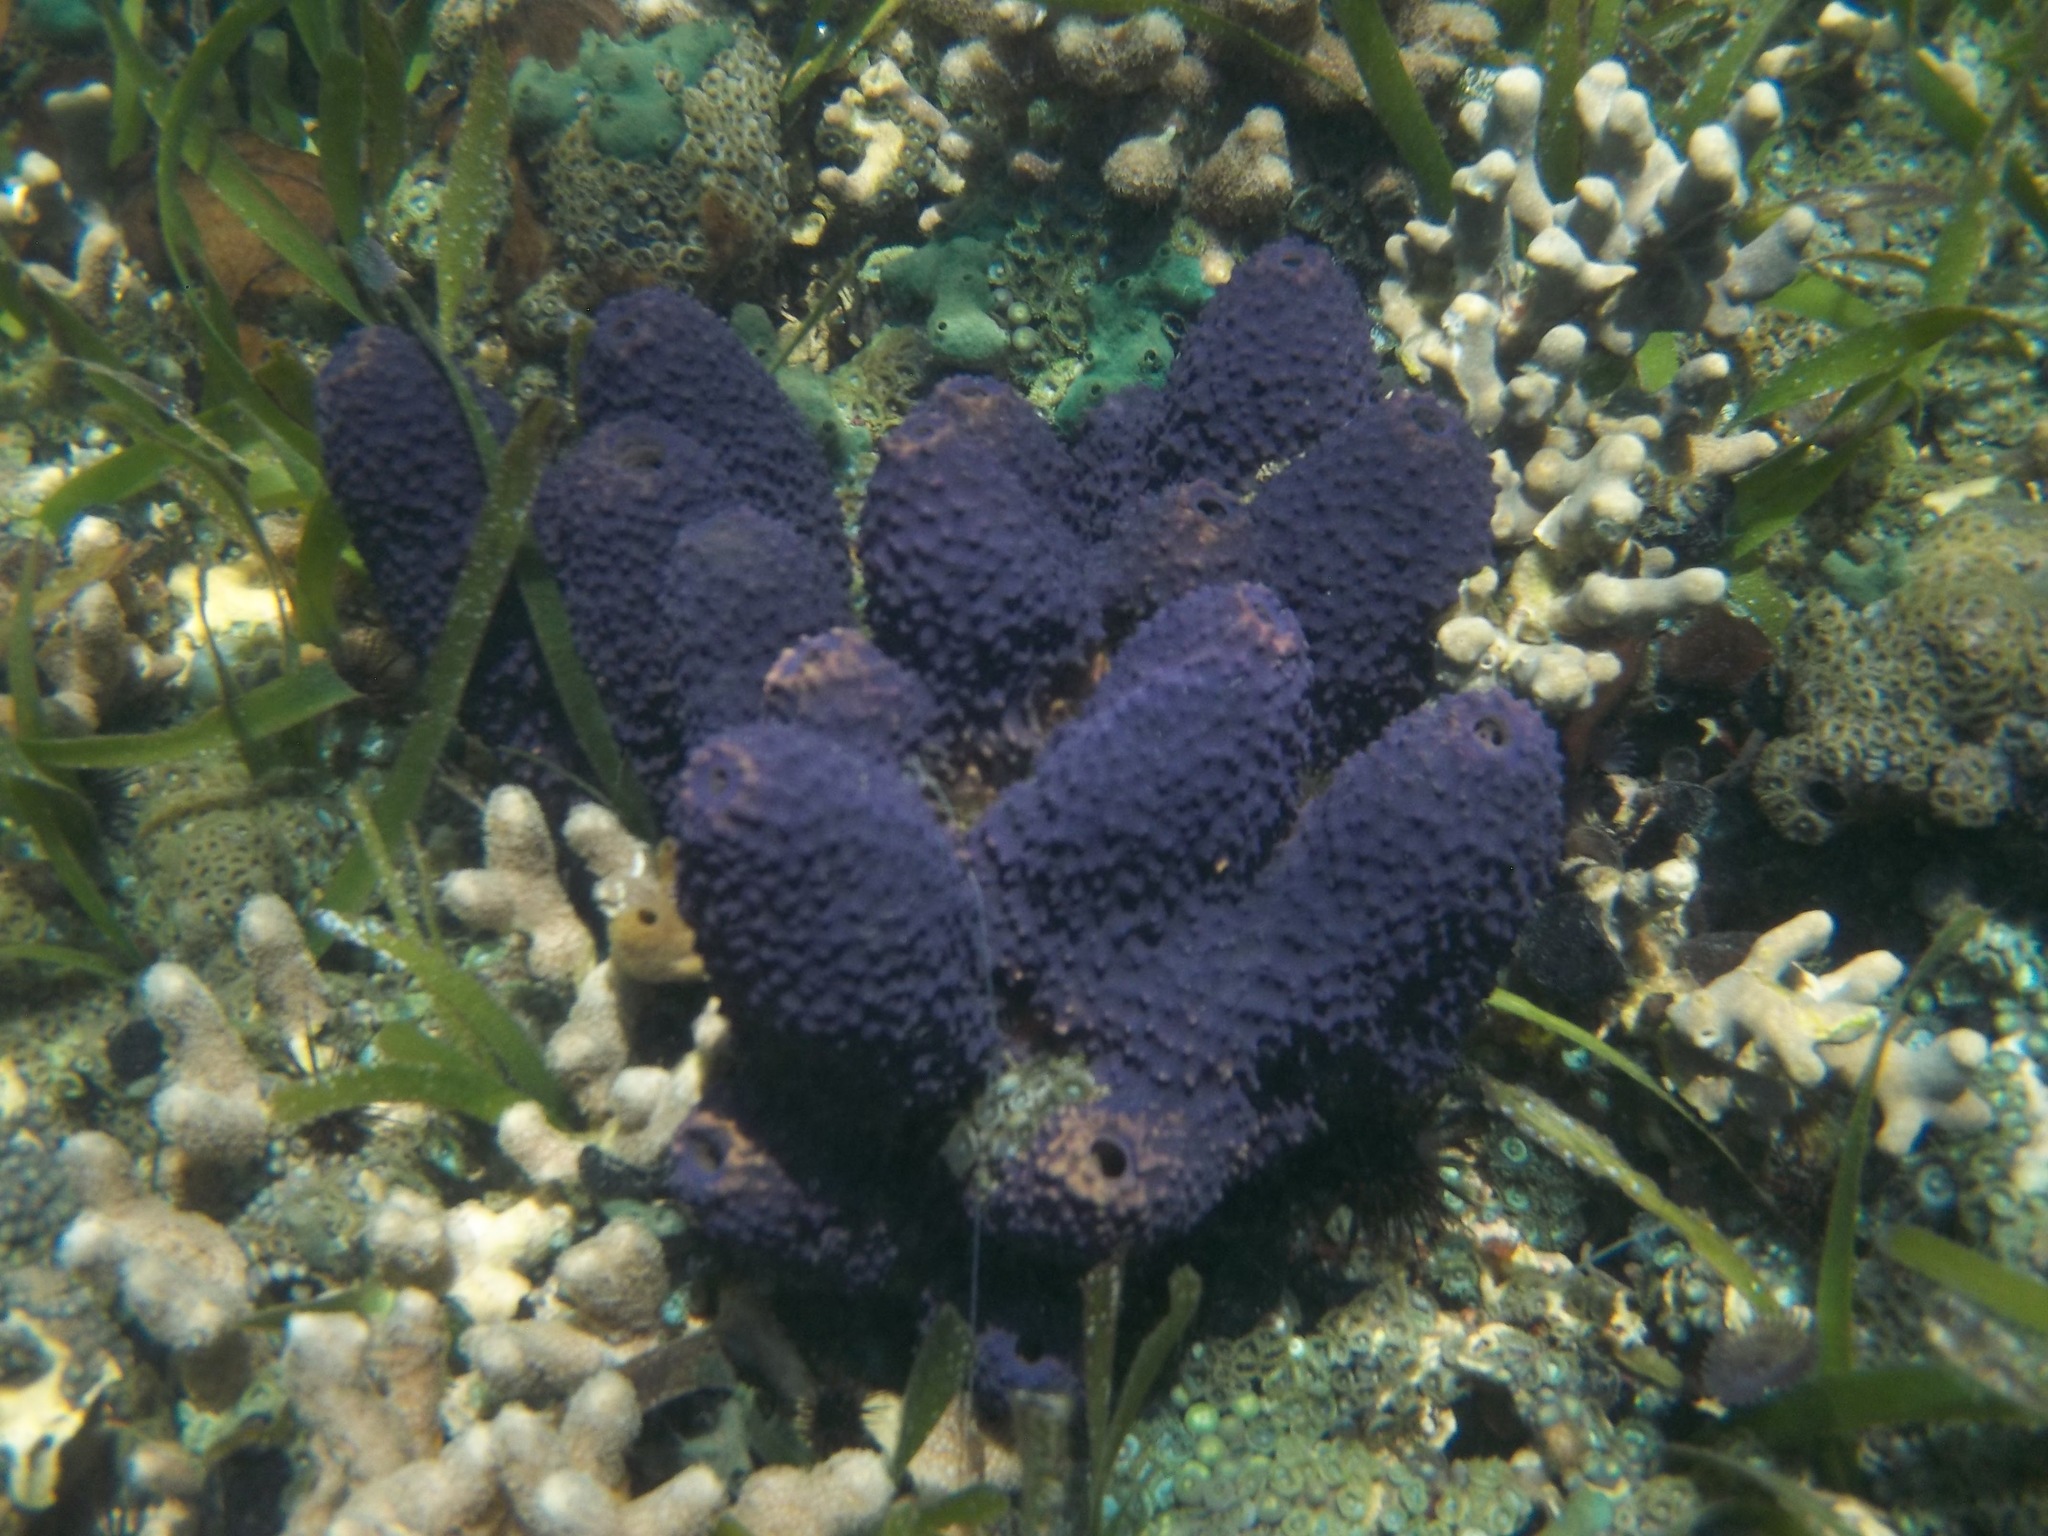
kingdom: Animalia
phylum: Porifera
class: Demospongiae
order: Verongiida
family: Aplysinidae
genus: Aiolochroia
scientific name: Aiolochroia crassa
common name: Branching tube sponge
